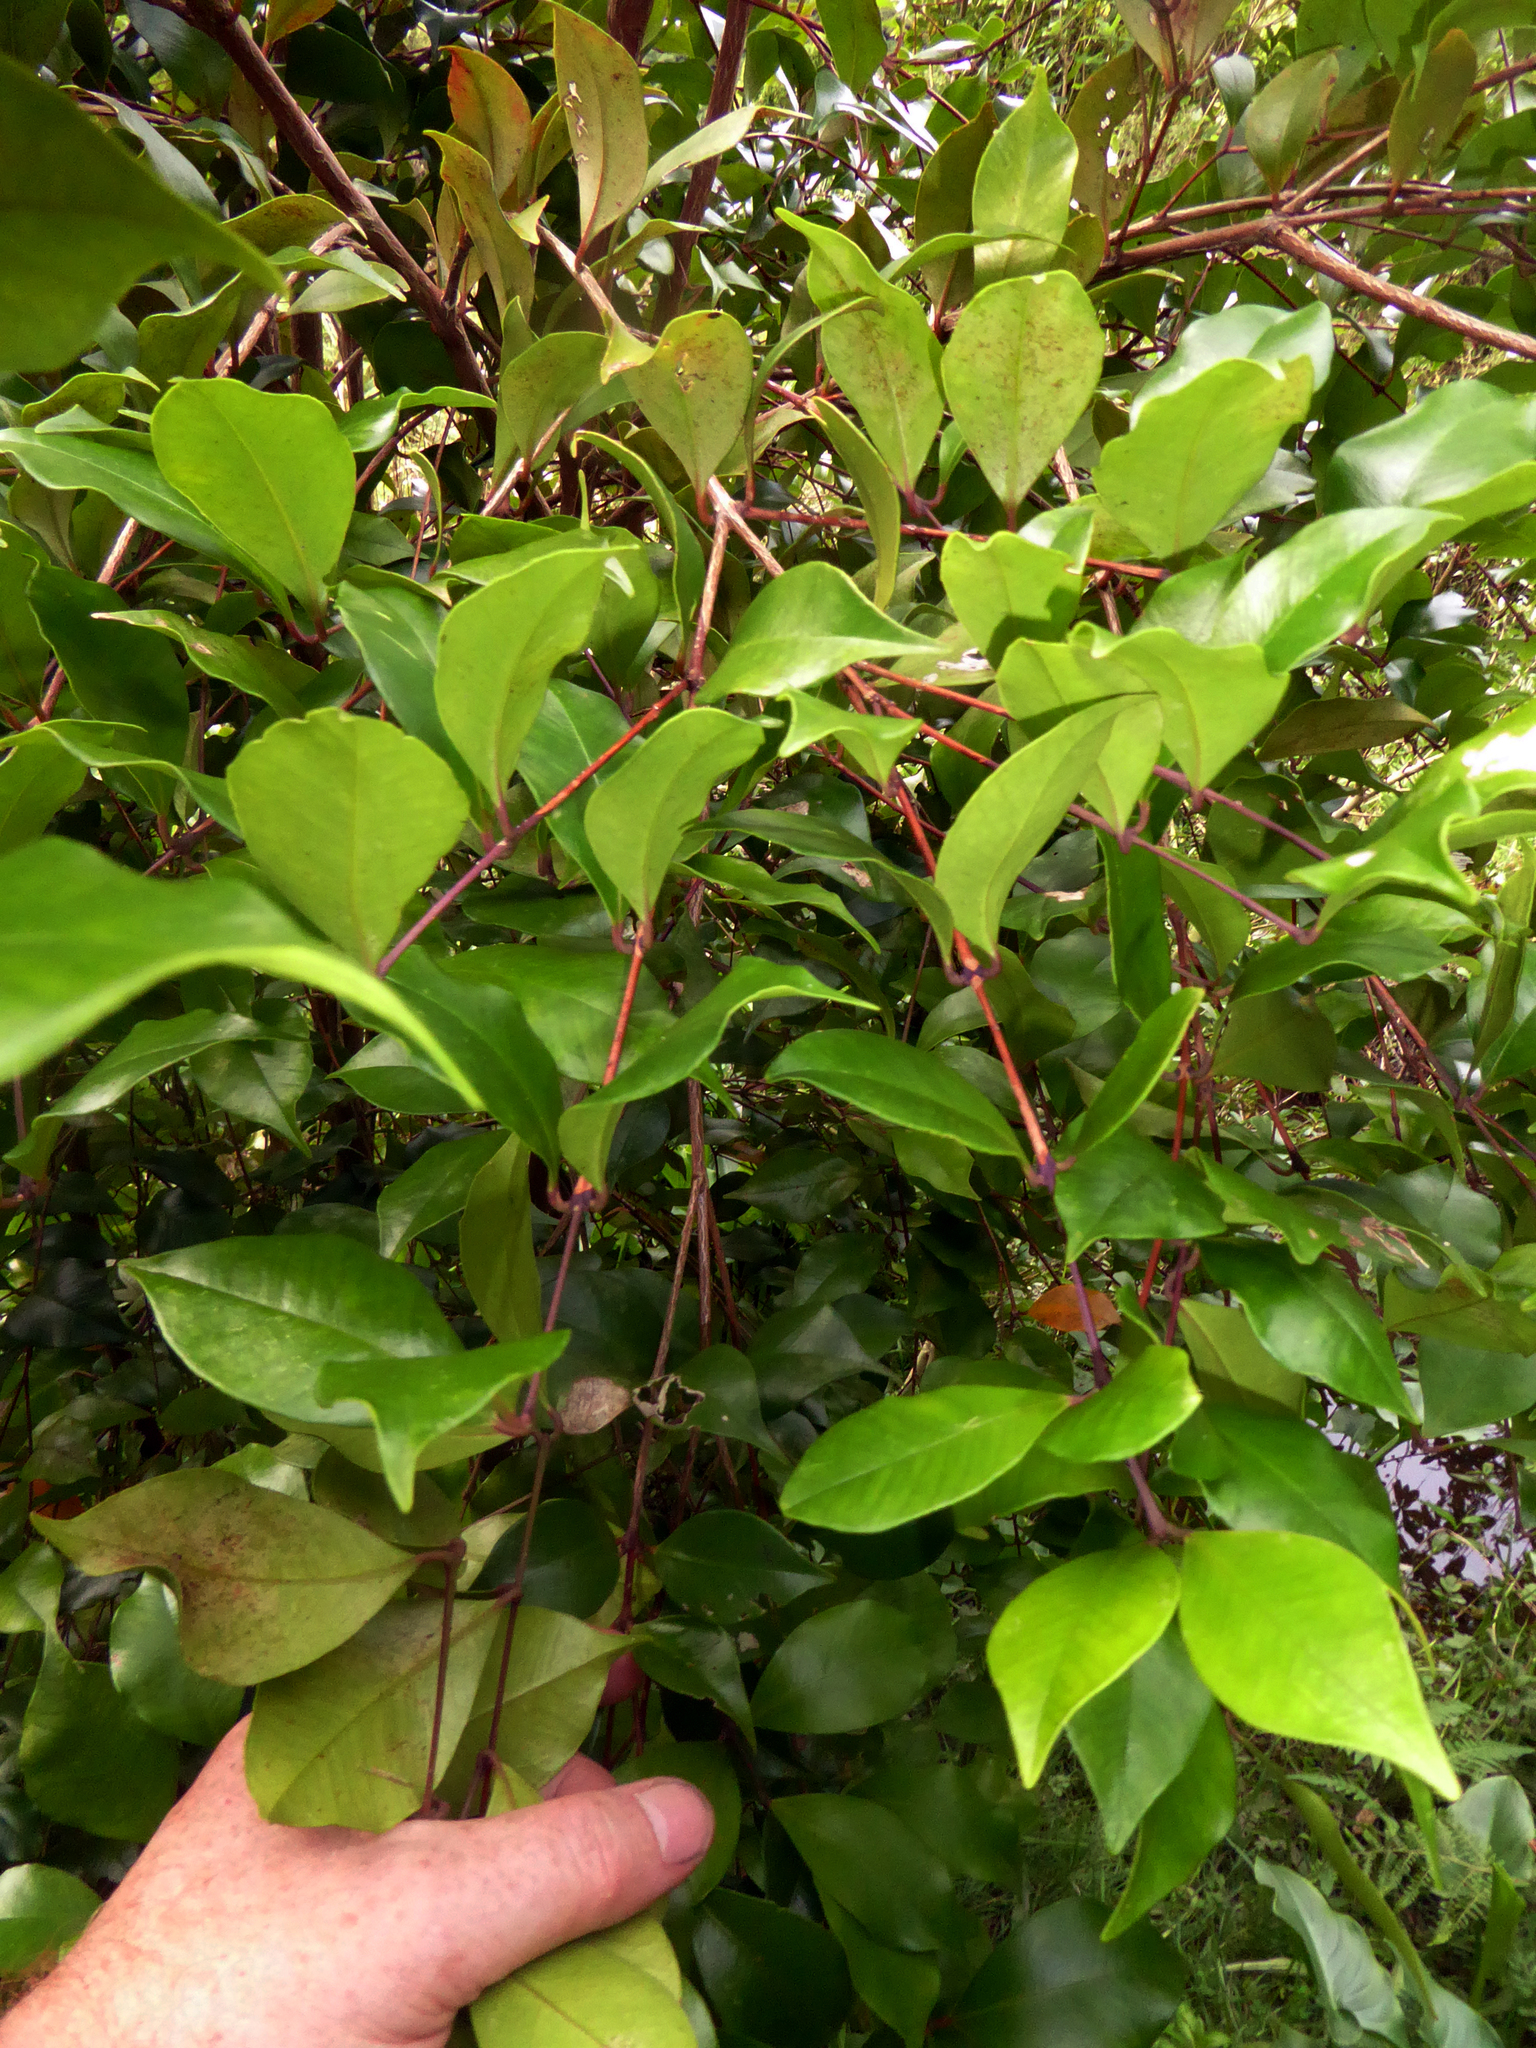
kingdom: Plantae
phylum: Tracheophyta
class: Magnoliopsida
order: Myrtales
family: Myrtaceae
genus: Syzygium
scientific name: Syzygium smithii
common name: Lilly-pilly
